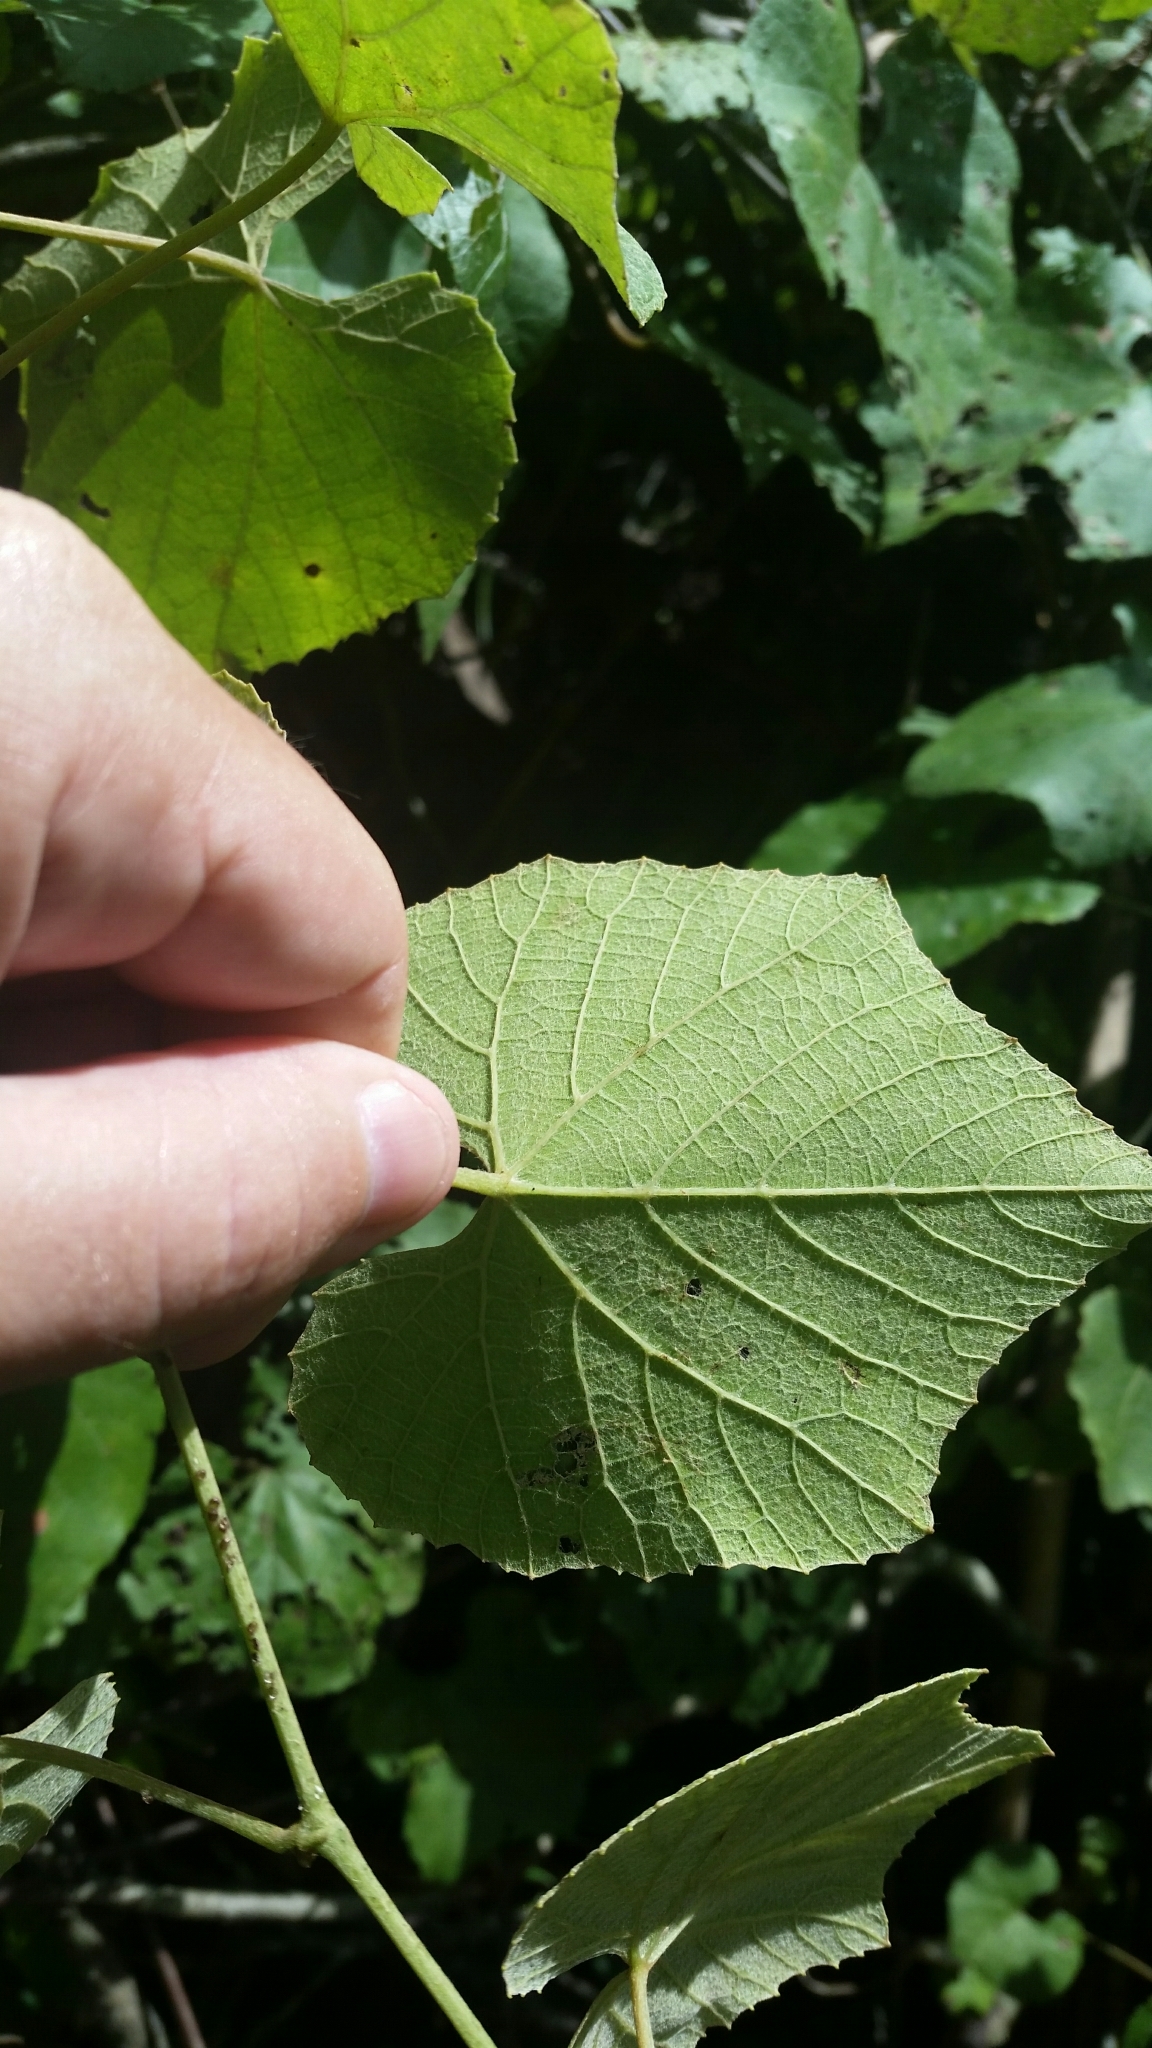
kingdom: Plantae
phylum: Tracheophyta
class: Magnoliopsida
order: Vitales
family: Vitaceae
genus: Vitis
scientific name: Vitis cinerea
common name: Ashy grape
